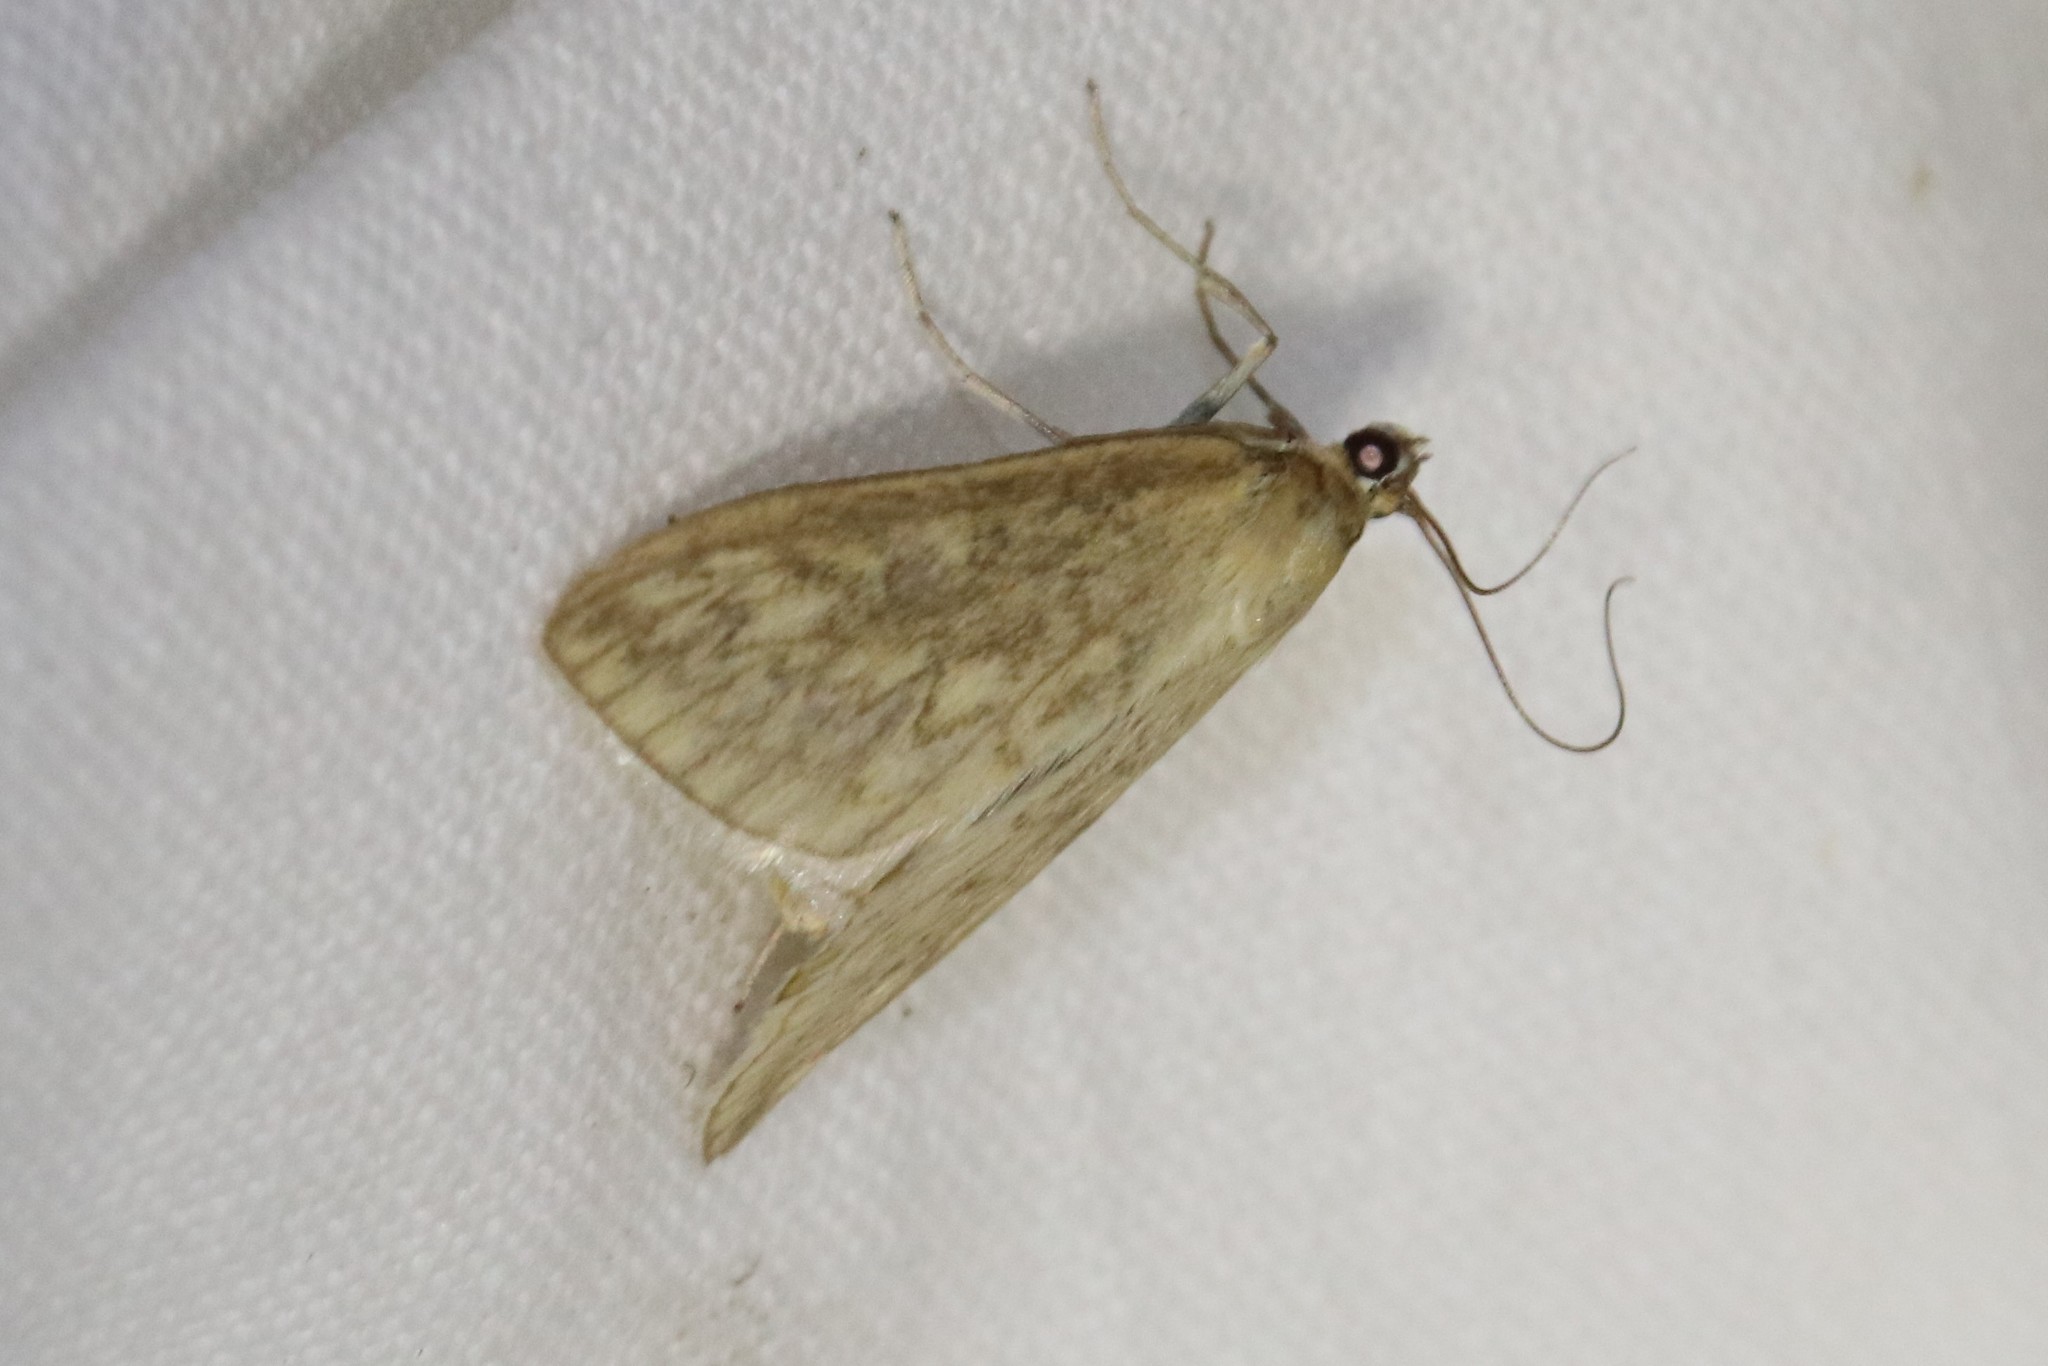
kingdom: Animalia
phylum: Arthropoda
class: Insecta
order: Lepidoptera
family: Crambidae
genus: Sitochroa
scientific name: Sitochroa chortalis
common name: Dimorphic sitochroa moth
